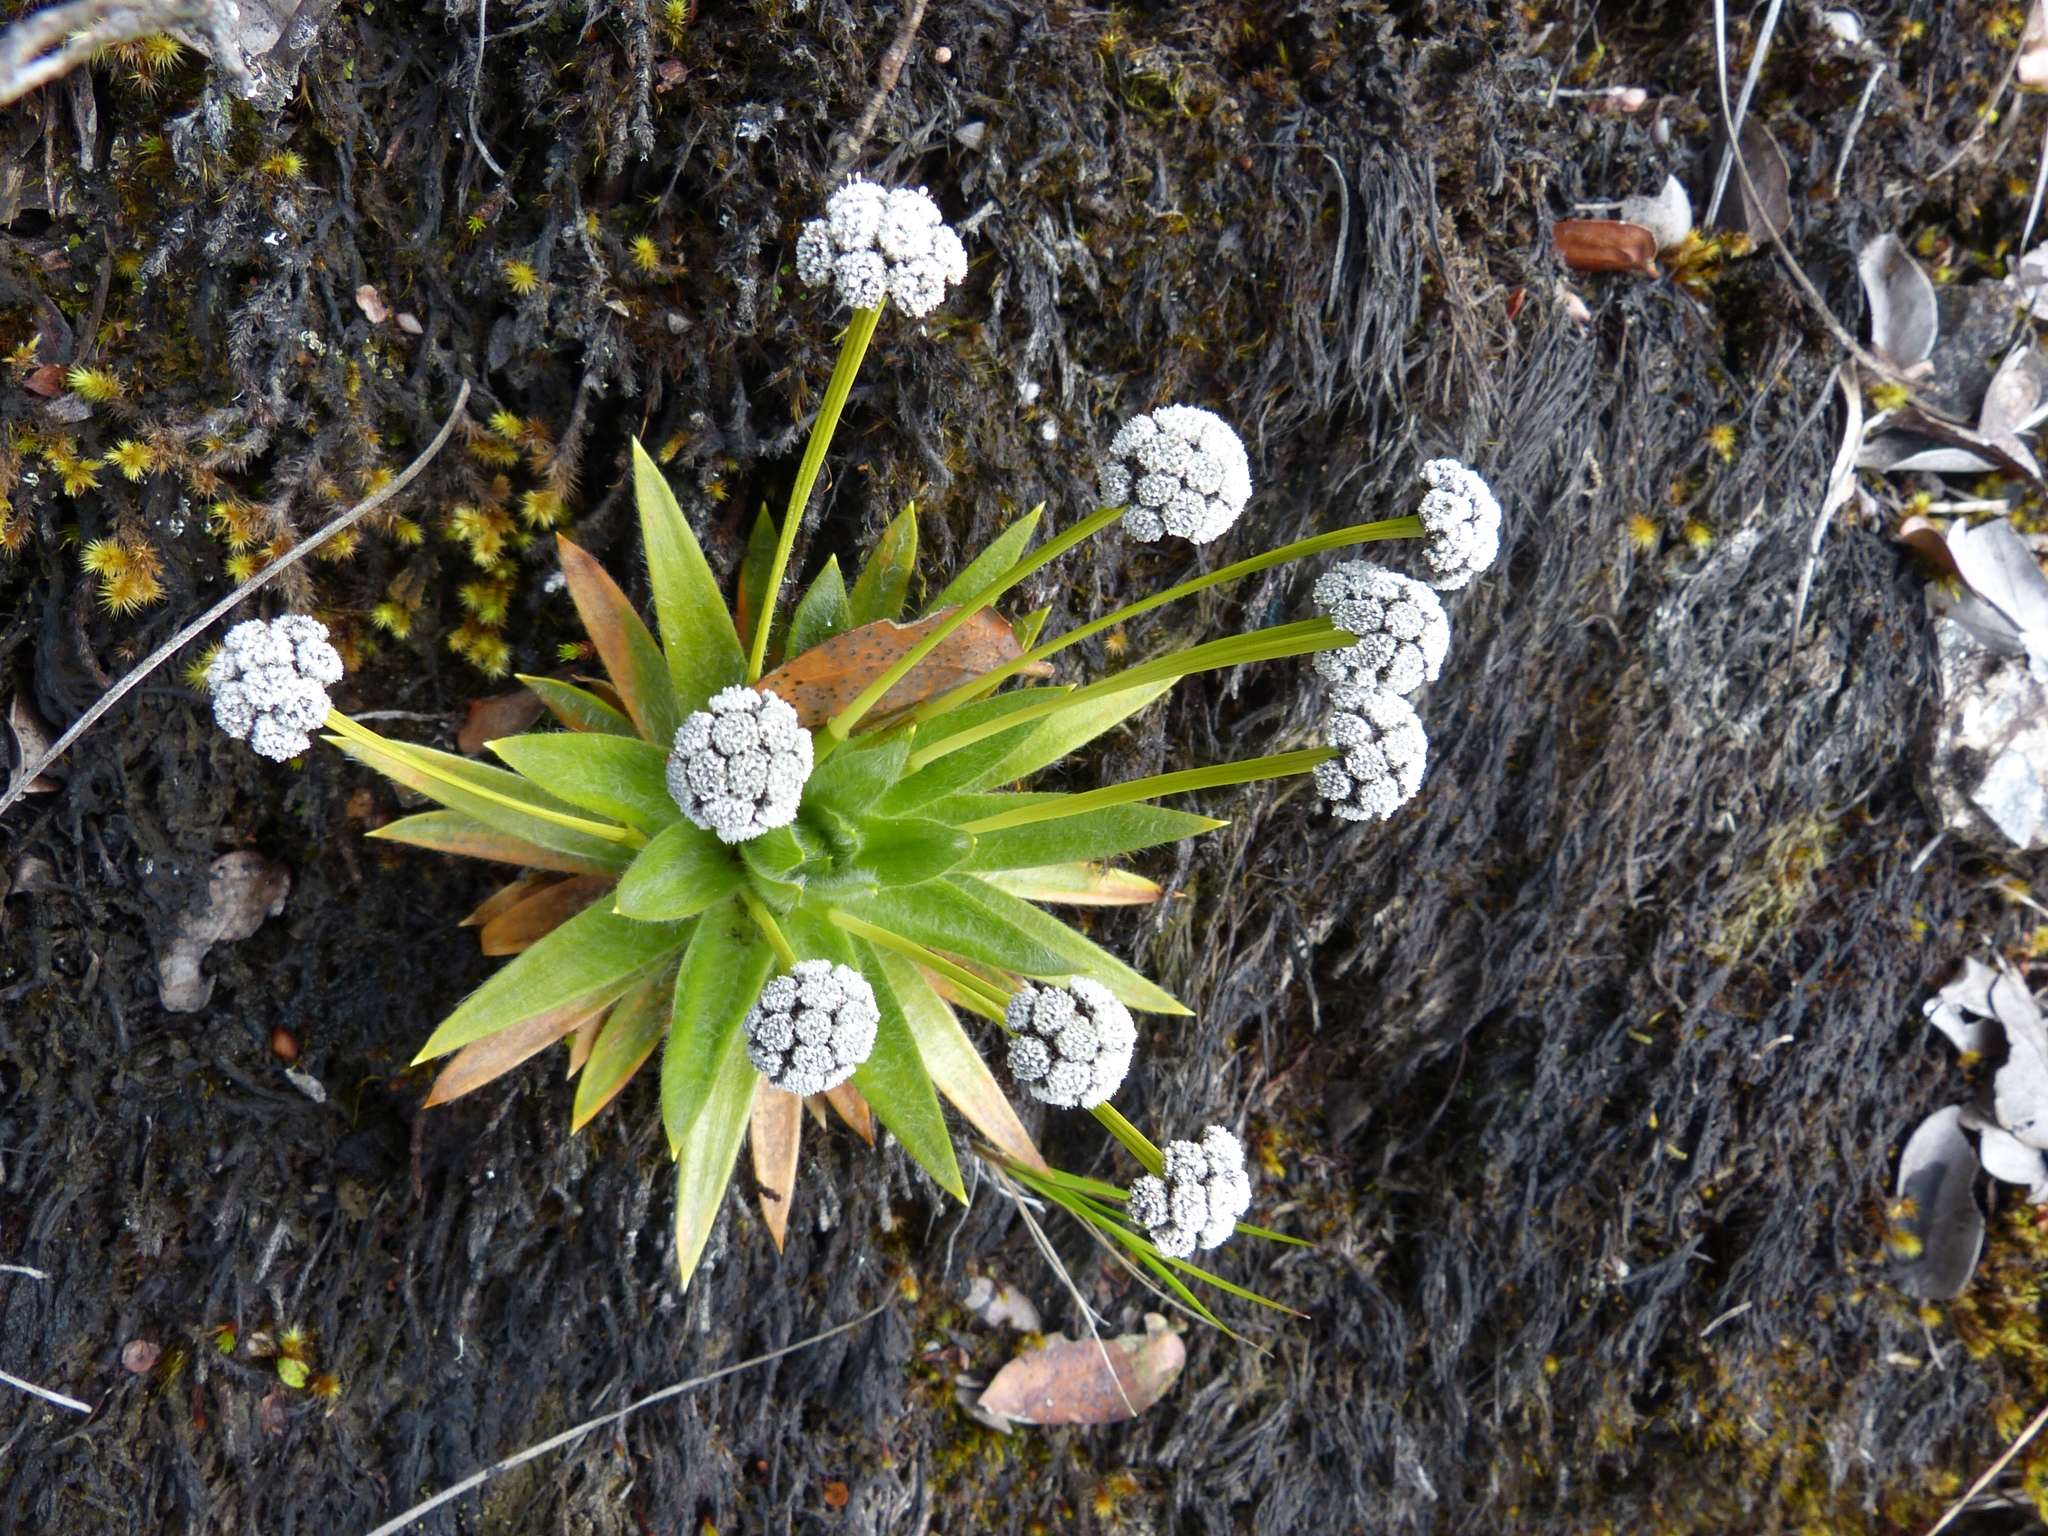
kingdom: Plantae
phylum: Tracheophyta
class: Liliopsida
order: Poales
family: Eriocaulaceae
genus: Paepalanthus
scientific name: Paepalanthus alpinus
